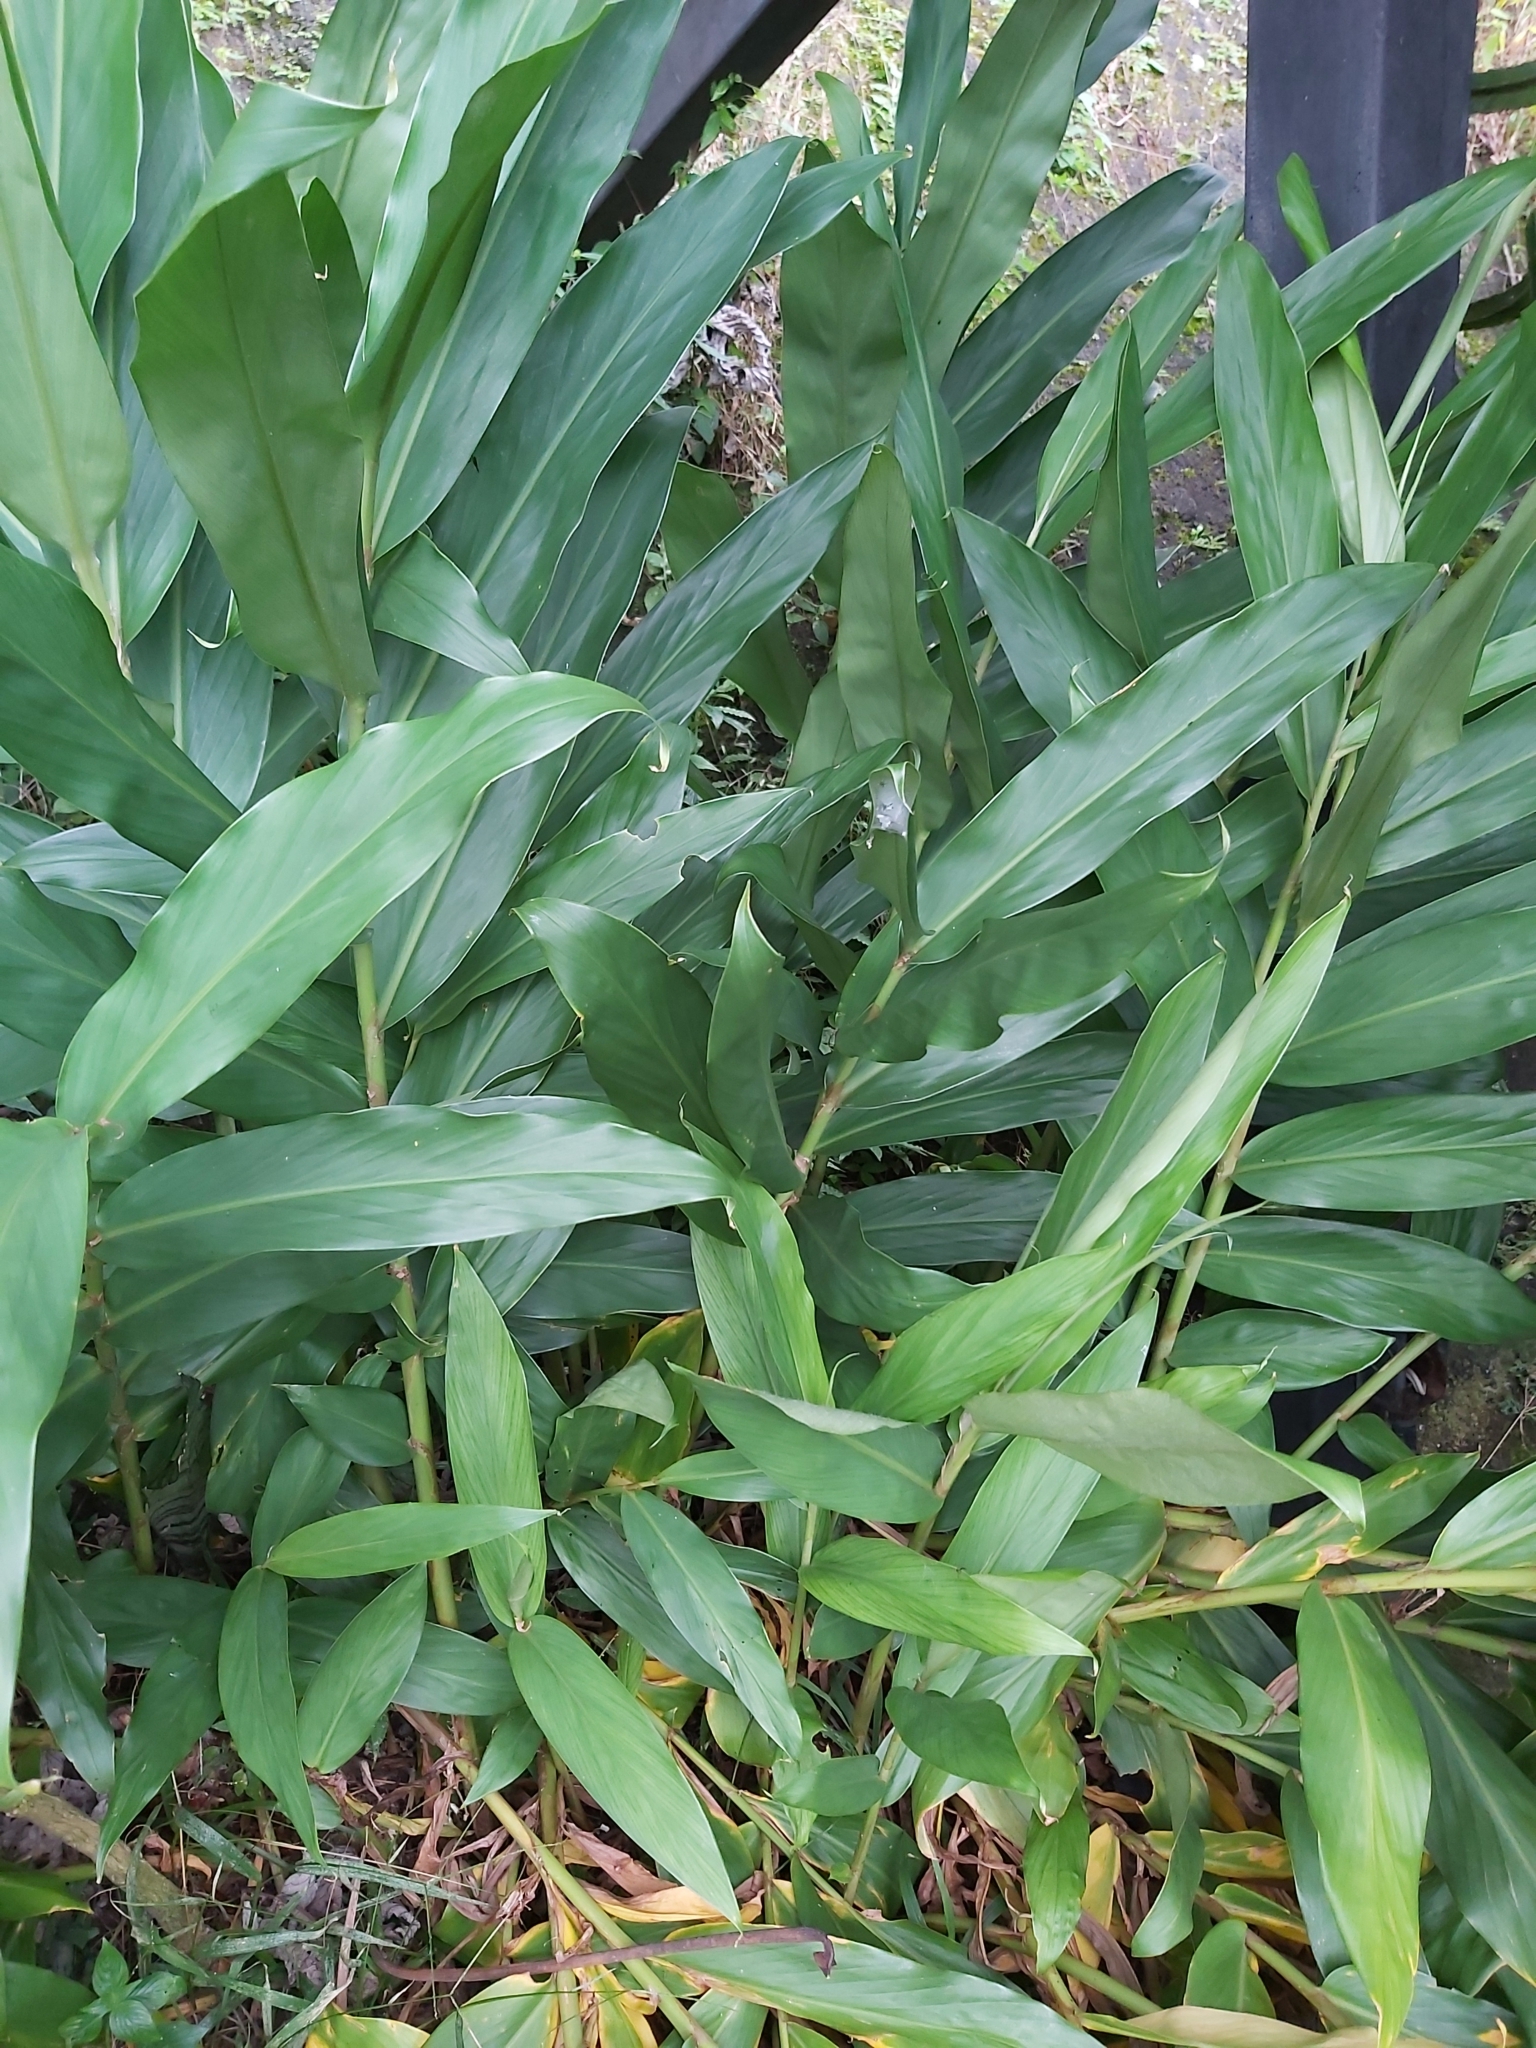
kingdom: Plantae
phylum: Tracheophyta
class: Liliopsida
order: Zingiberales
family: Zingiberaceae
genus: Hedychium
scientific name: Hedychium coronarium
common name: White garland-lily
